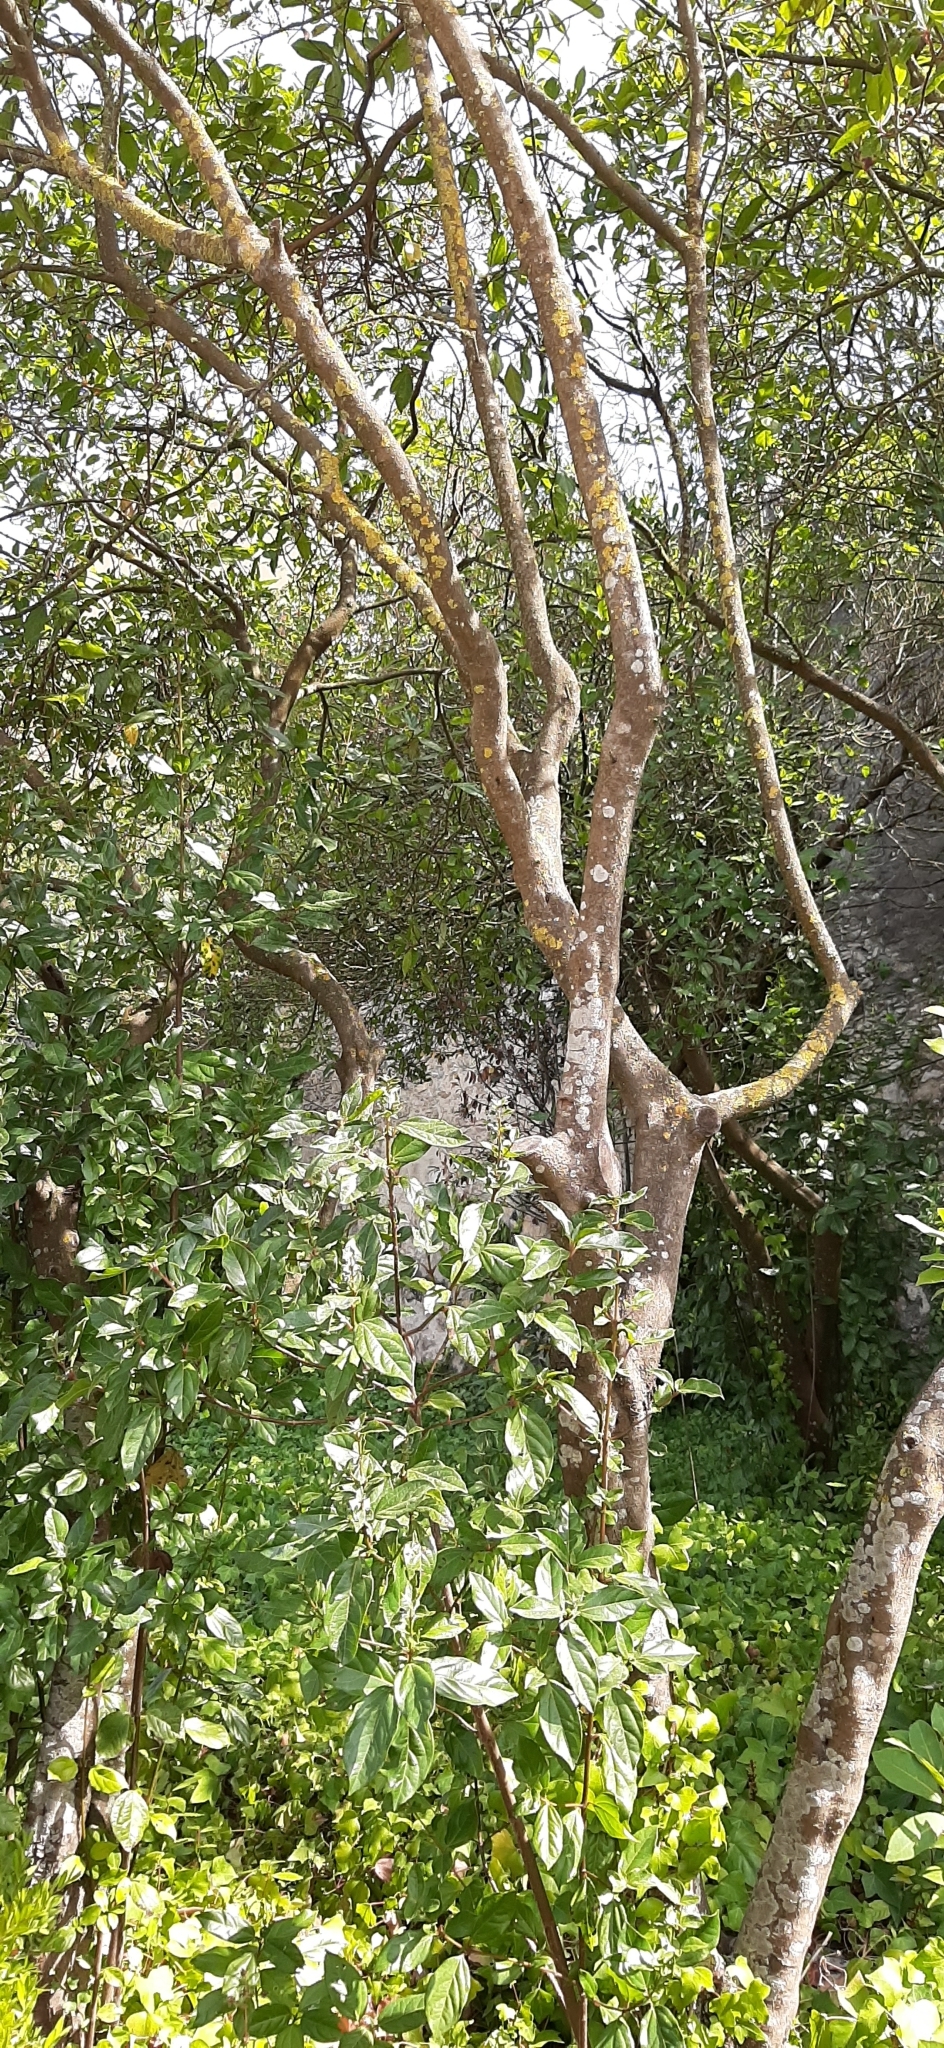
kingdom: Plantae
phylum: Tracheophyta
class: Magnoliopsida
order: Dipsacales
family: Viburnaceae
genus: Viburnum
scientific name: Viburnum tinus
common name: Laurustinus
